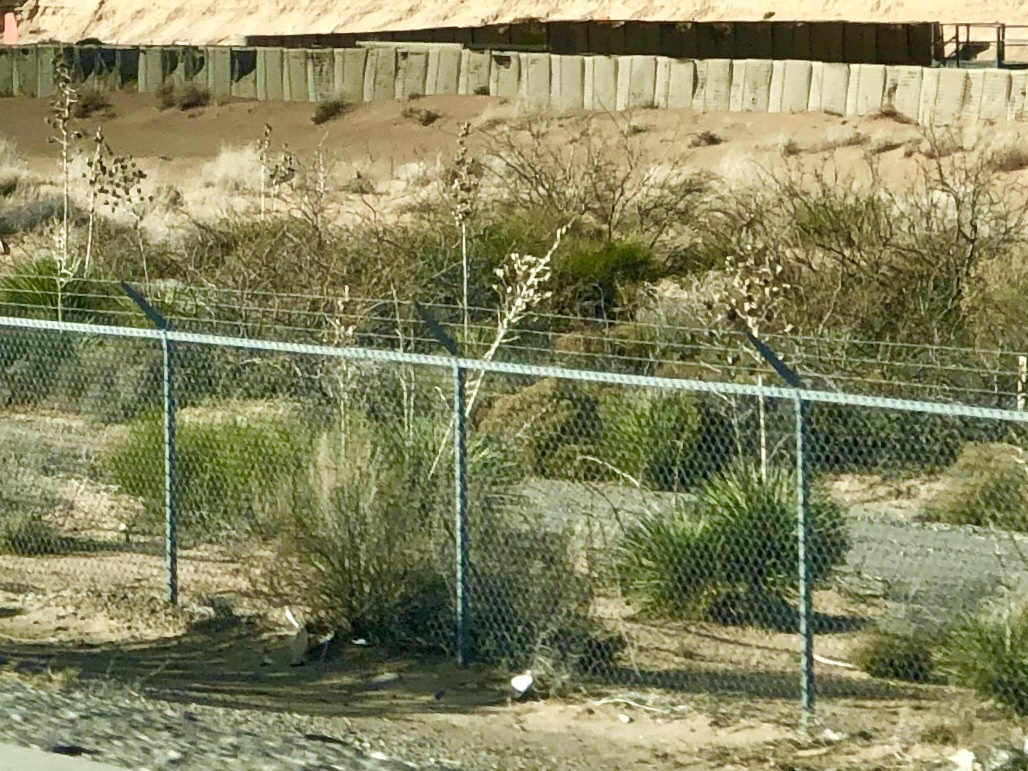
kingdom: Plantae
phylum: Tracheophyta
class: Liliopsida
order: Asparagales
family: Asparagaceae
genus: Yucca
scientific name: Yucca elata
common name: Palmella
